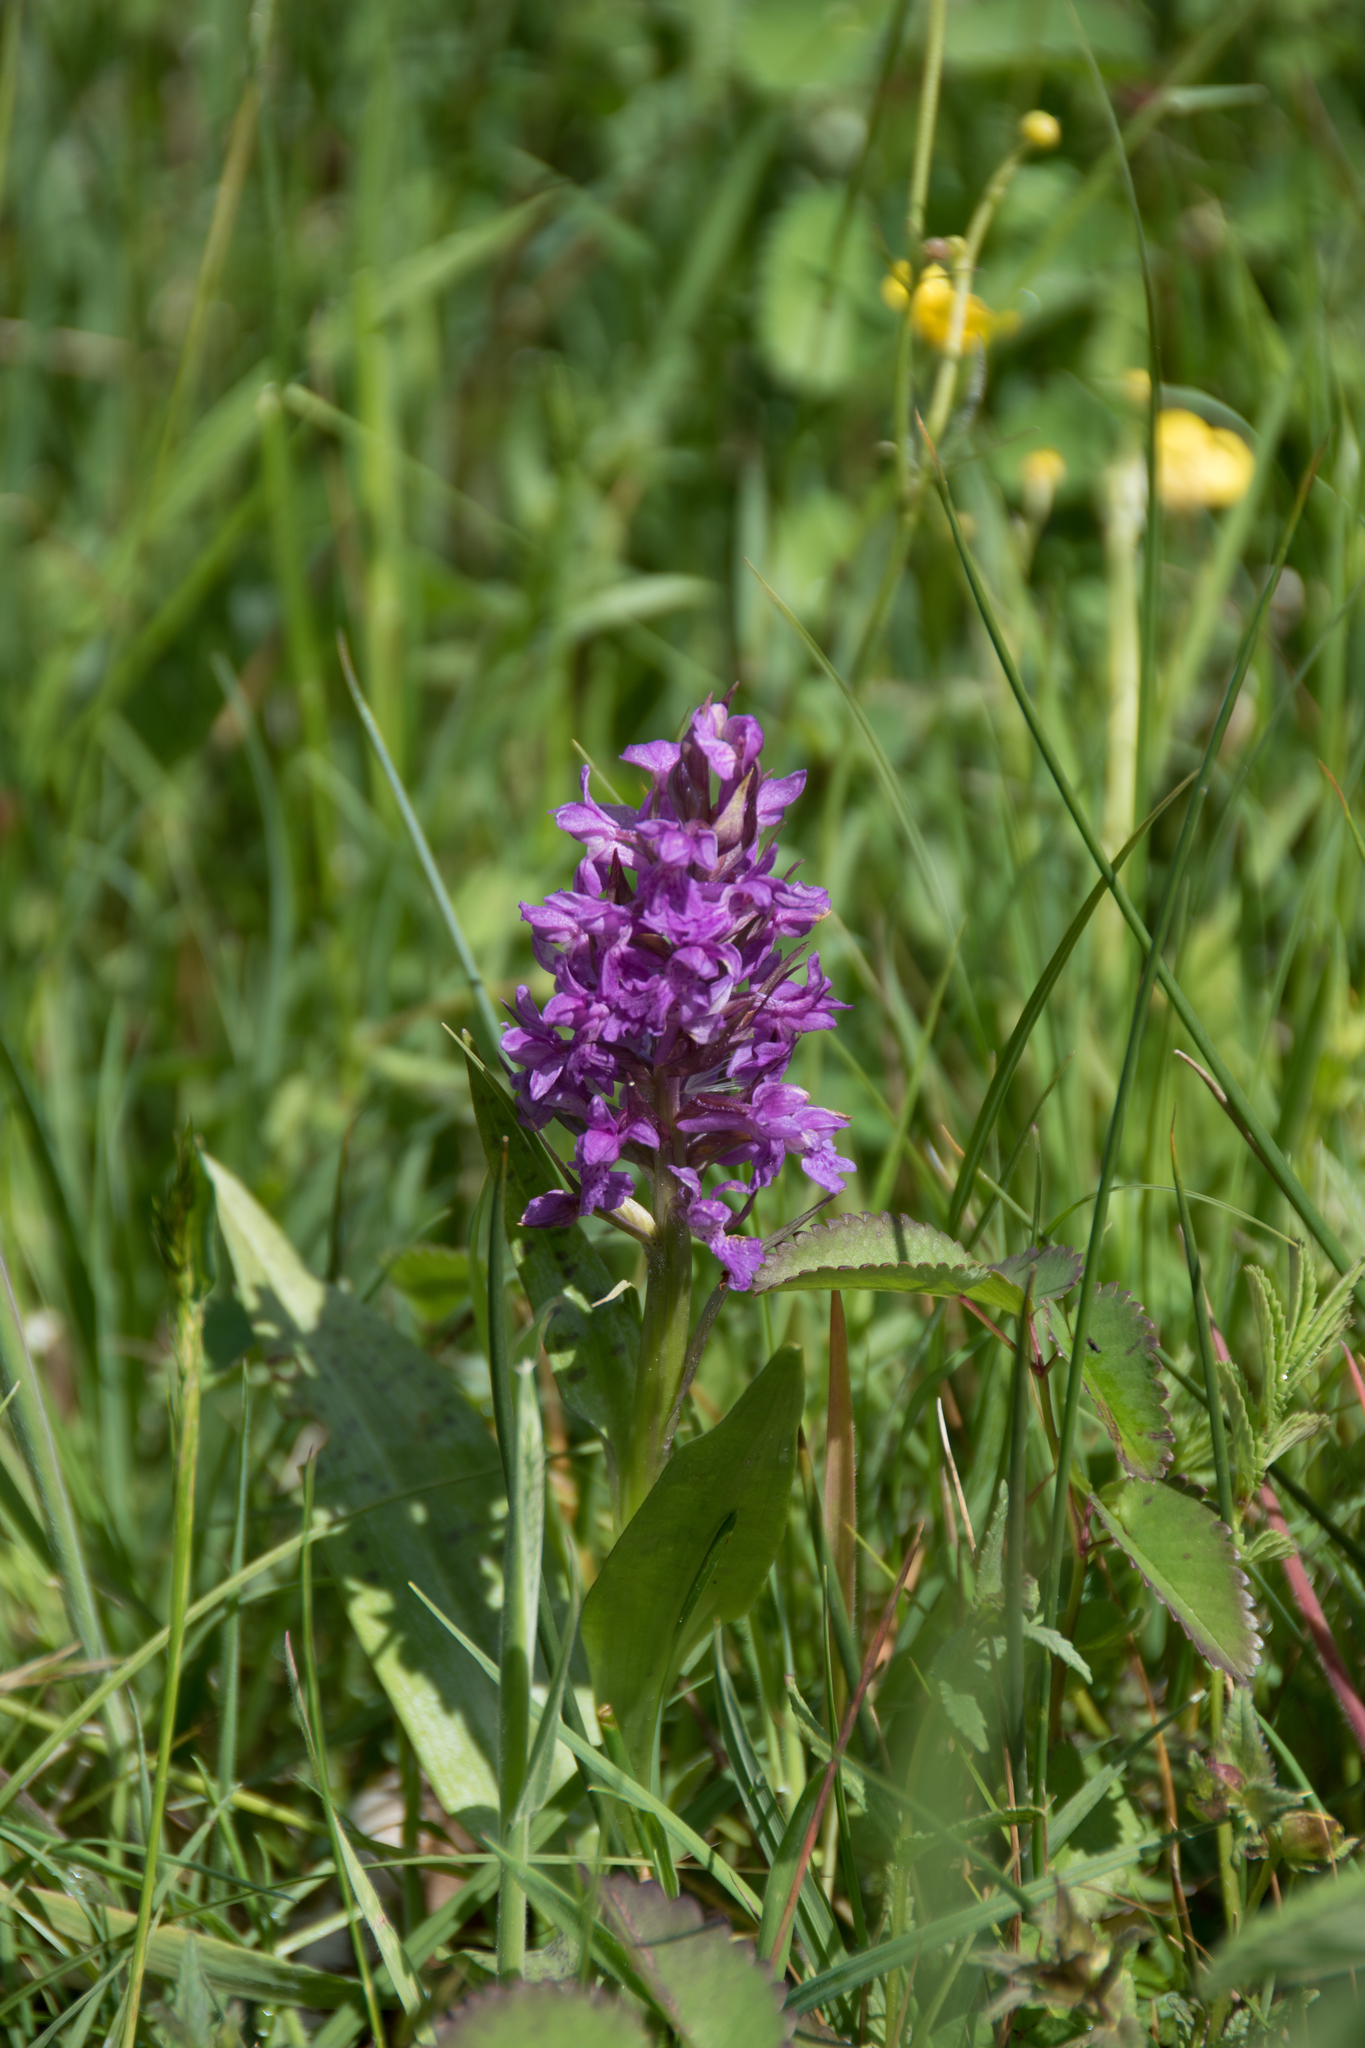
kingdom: Plantae
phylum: Tracheophyta
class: Liliopsida
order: Asparagales
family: Orchidaceae
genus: Dactylorhiza
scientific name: Dactylorhiza majalis
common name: Marsh orchid
